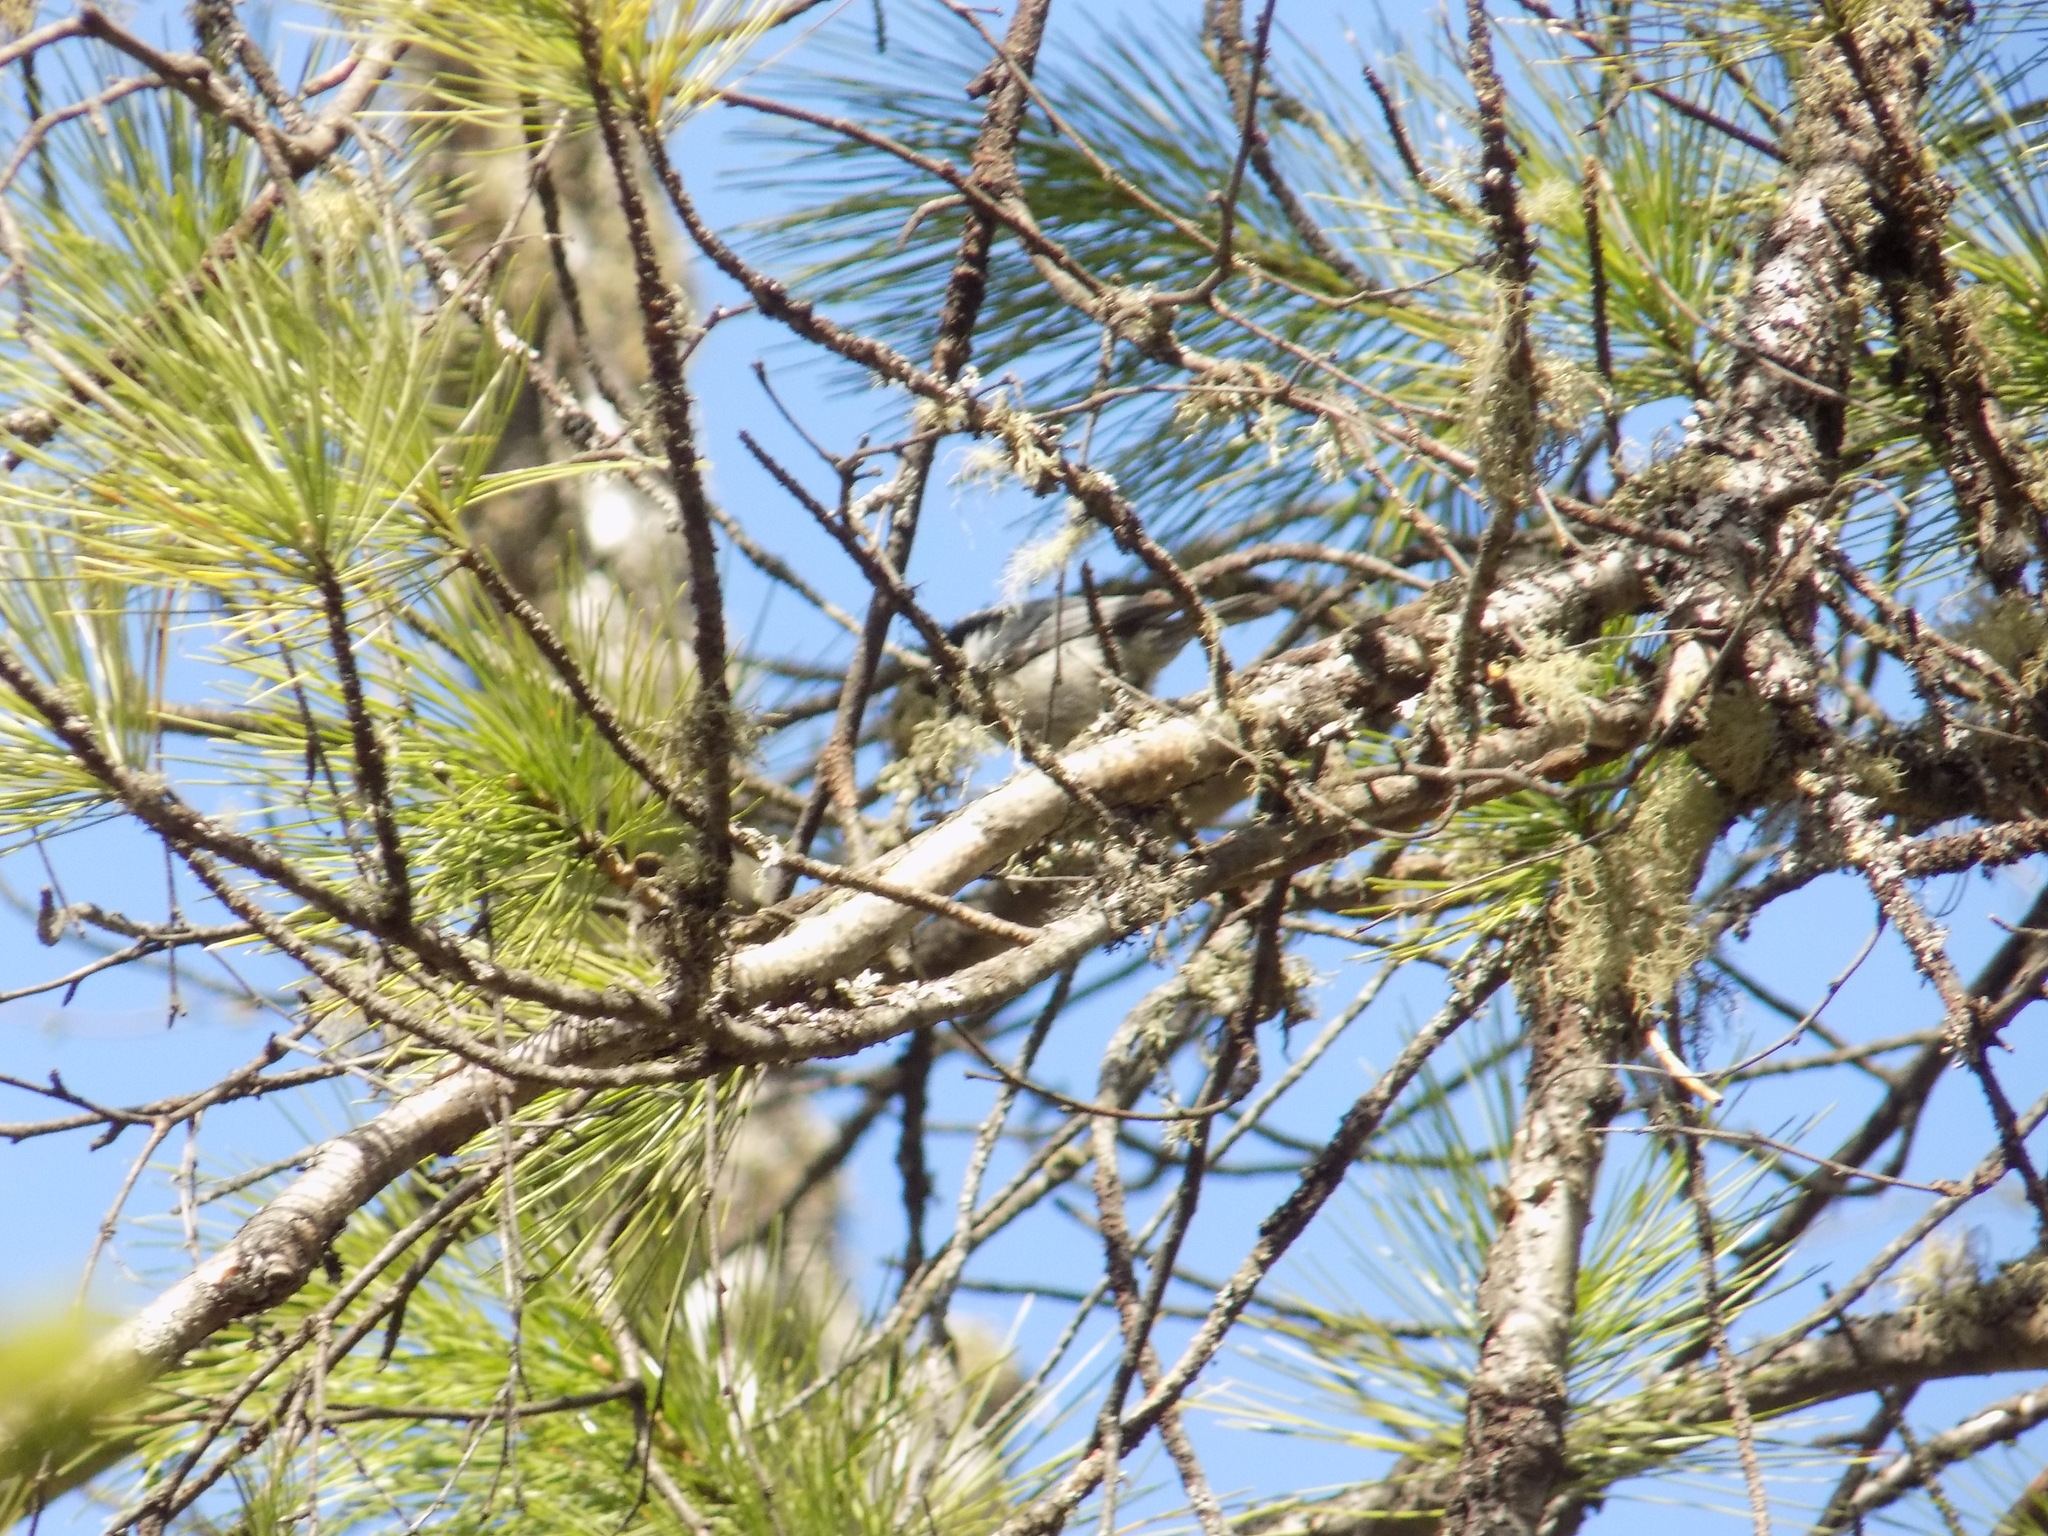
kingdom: Animalia
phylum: Chordata
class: Aves
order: Passeriformes
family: Paridae
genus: Periparus
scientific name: Periparus ater
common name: Coal tit
